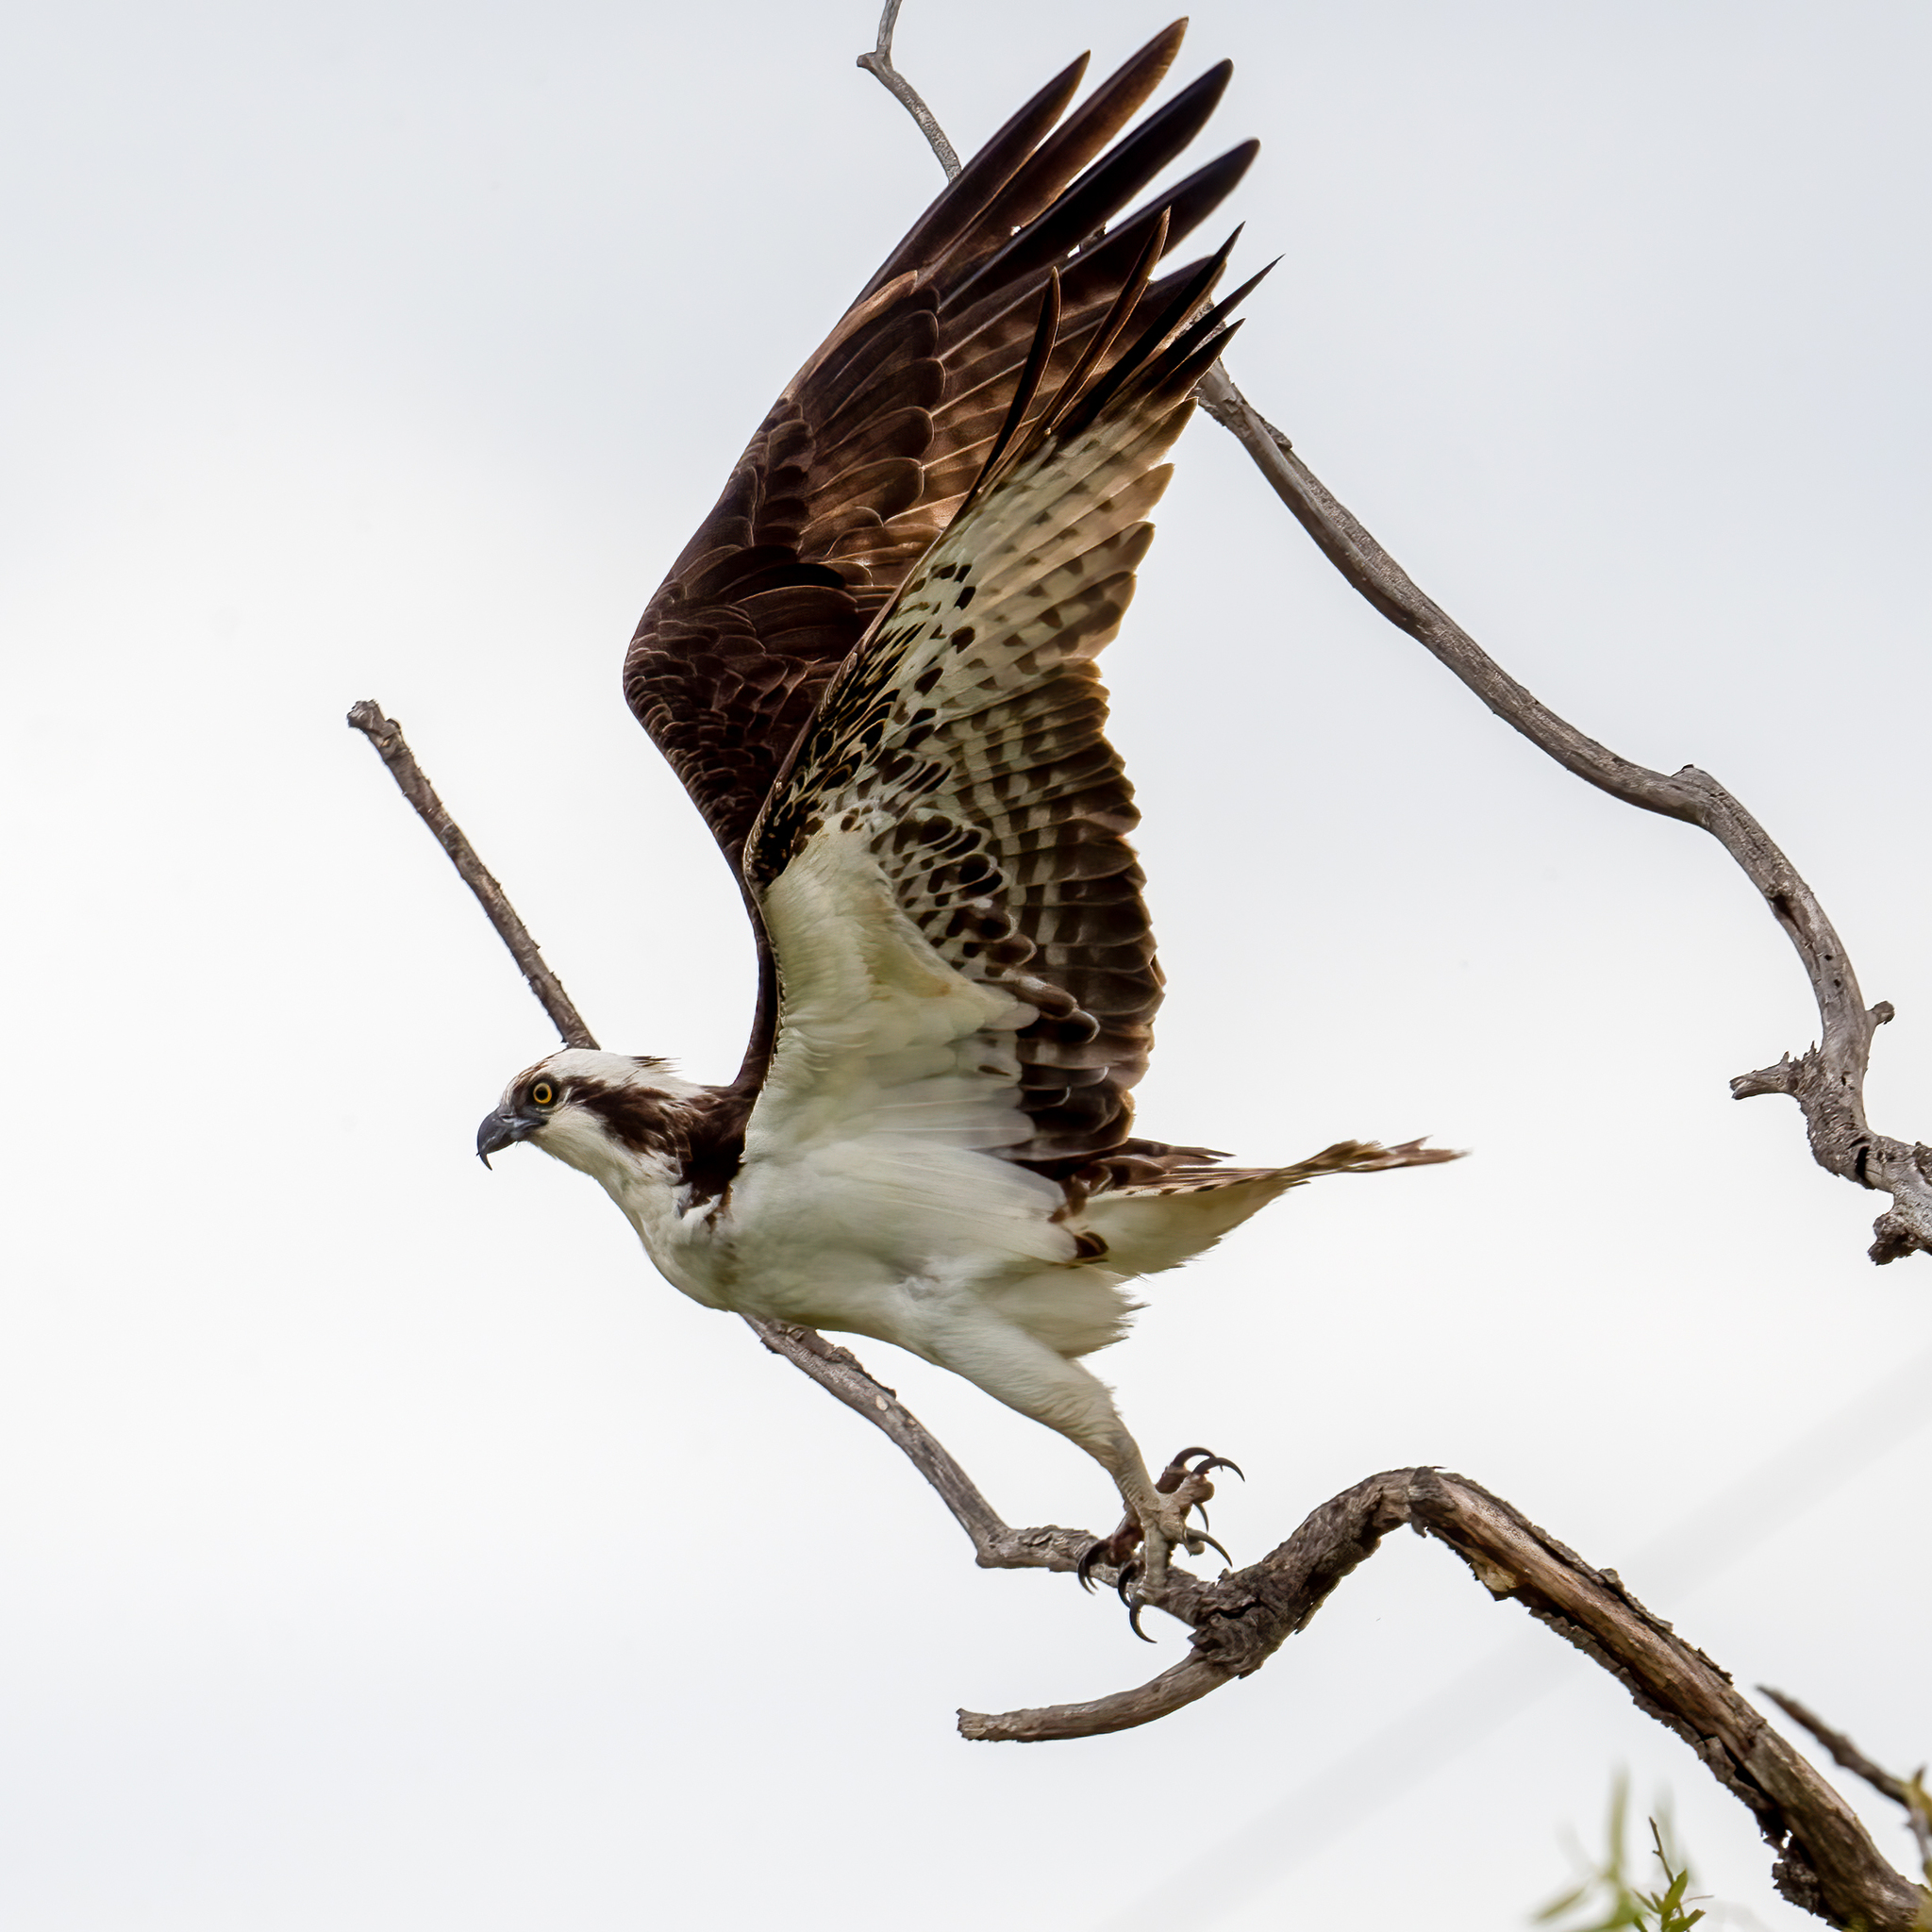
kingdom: Animalia
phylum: Chordata
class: Aves
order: Accipitriformes
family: Pandionidae
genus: Pandion
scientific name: Pandion haliaetus
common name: Osprey
